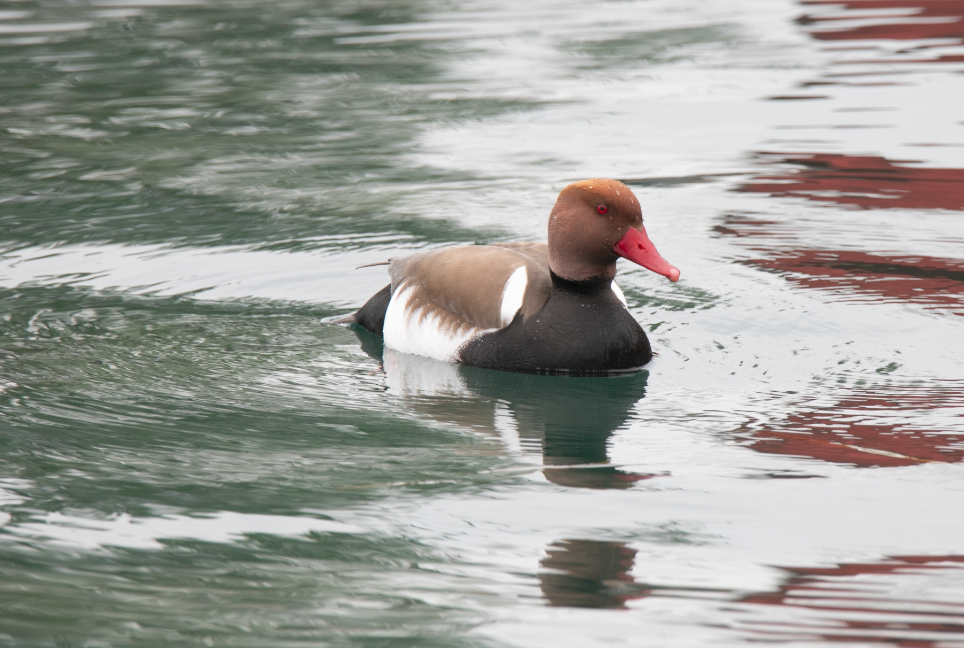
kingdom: Animalia
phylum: Chordata
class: Aves
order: Anseriformes
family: Anatidae
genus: Netta
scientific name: Netta rufina
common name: Red-crested pochard
